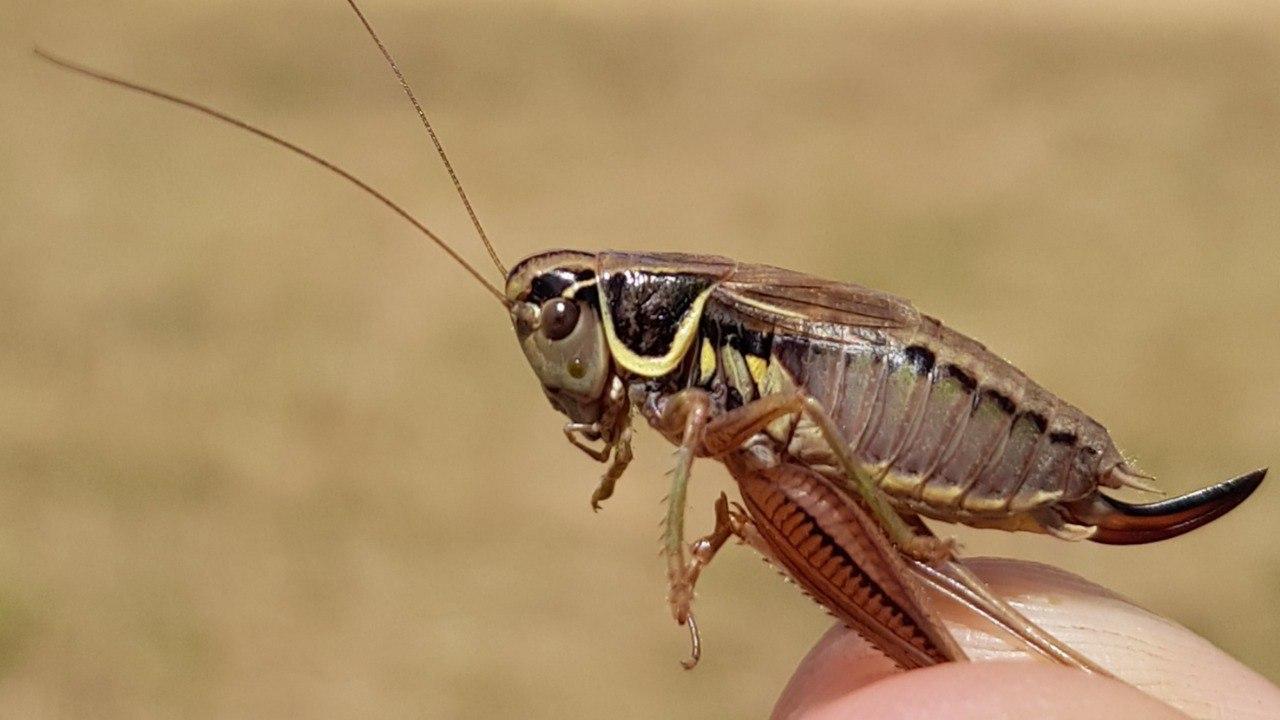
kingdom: Animalia
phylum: Arthropoda
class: Insecta
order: Orthoptera
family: Tettigoniidae
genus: Roeseliana
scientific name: Roeseliana roeselii
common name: Roesel's bush cricket
